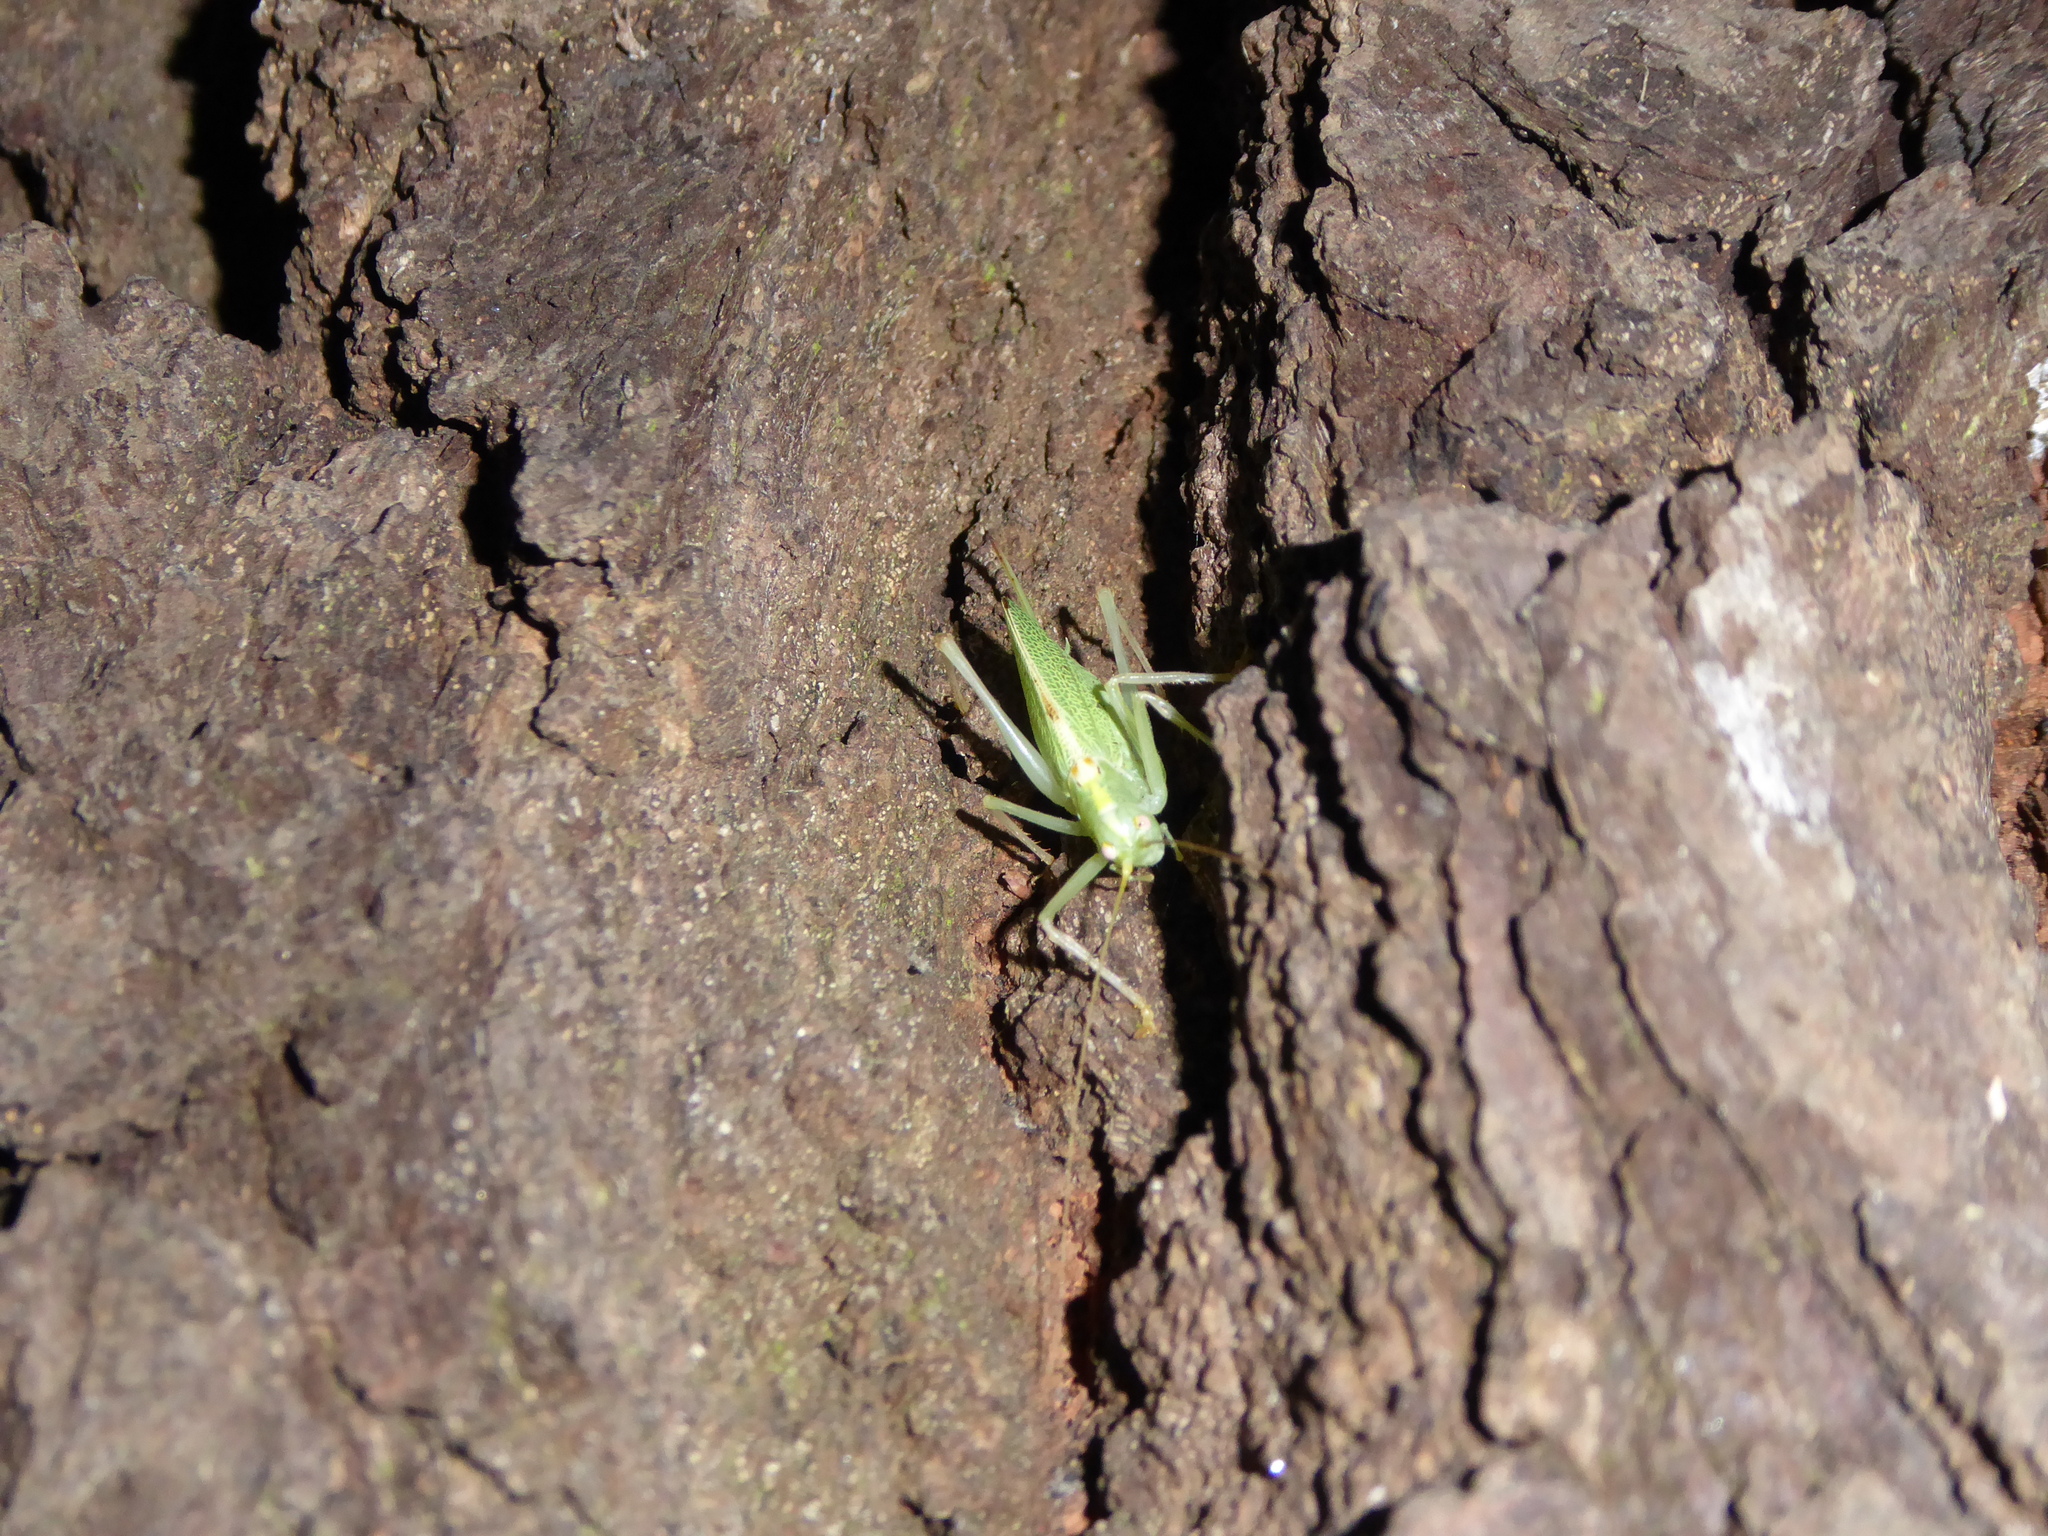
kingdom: Animalia
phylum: Arthropoda
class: Insecta
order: Orthoptera
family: Tettigoniidae
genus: Meconema
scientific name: Meconema thalassinum
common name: Oak bush-cricket
